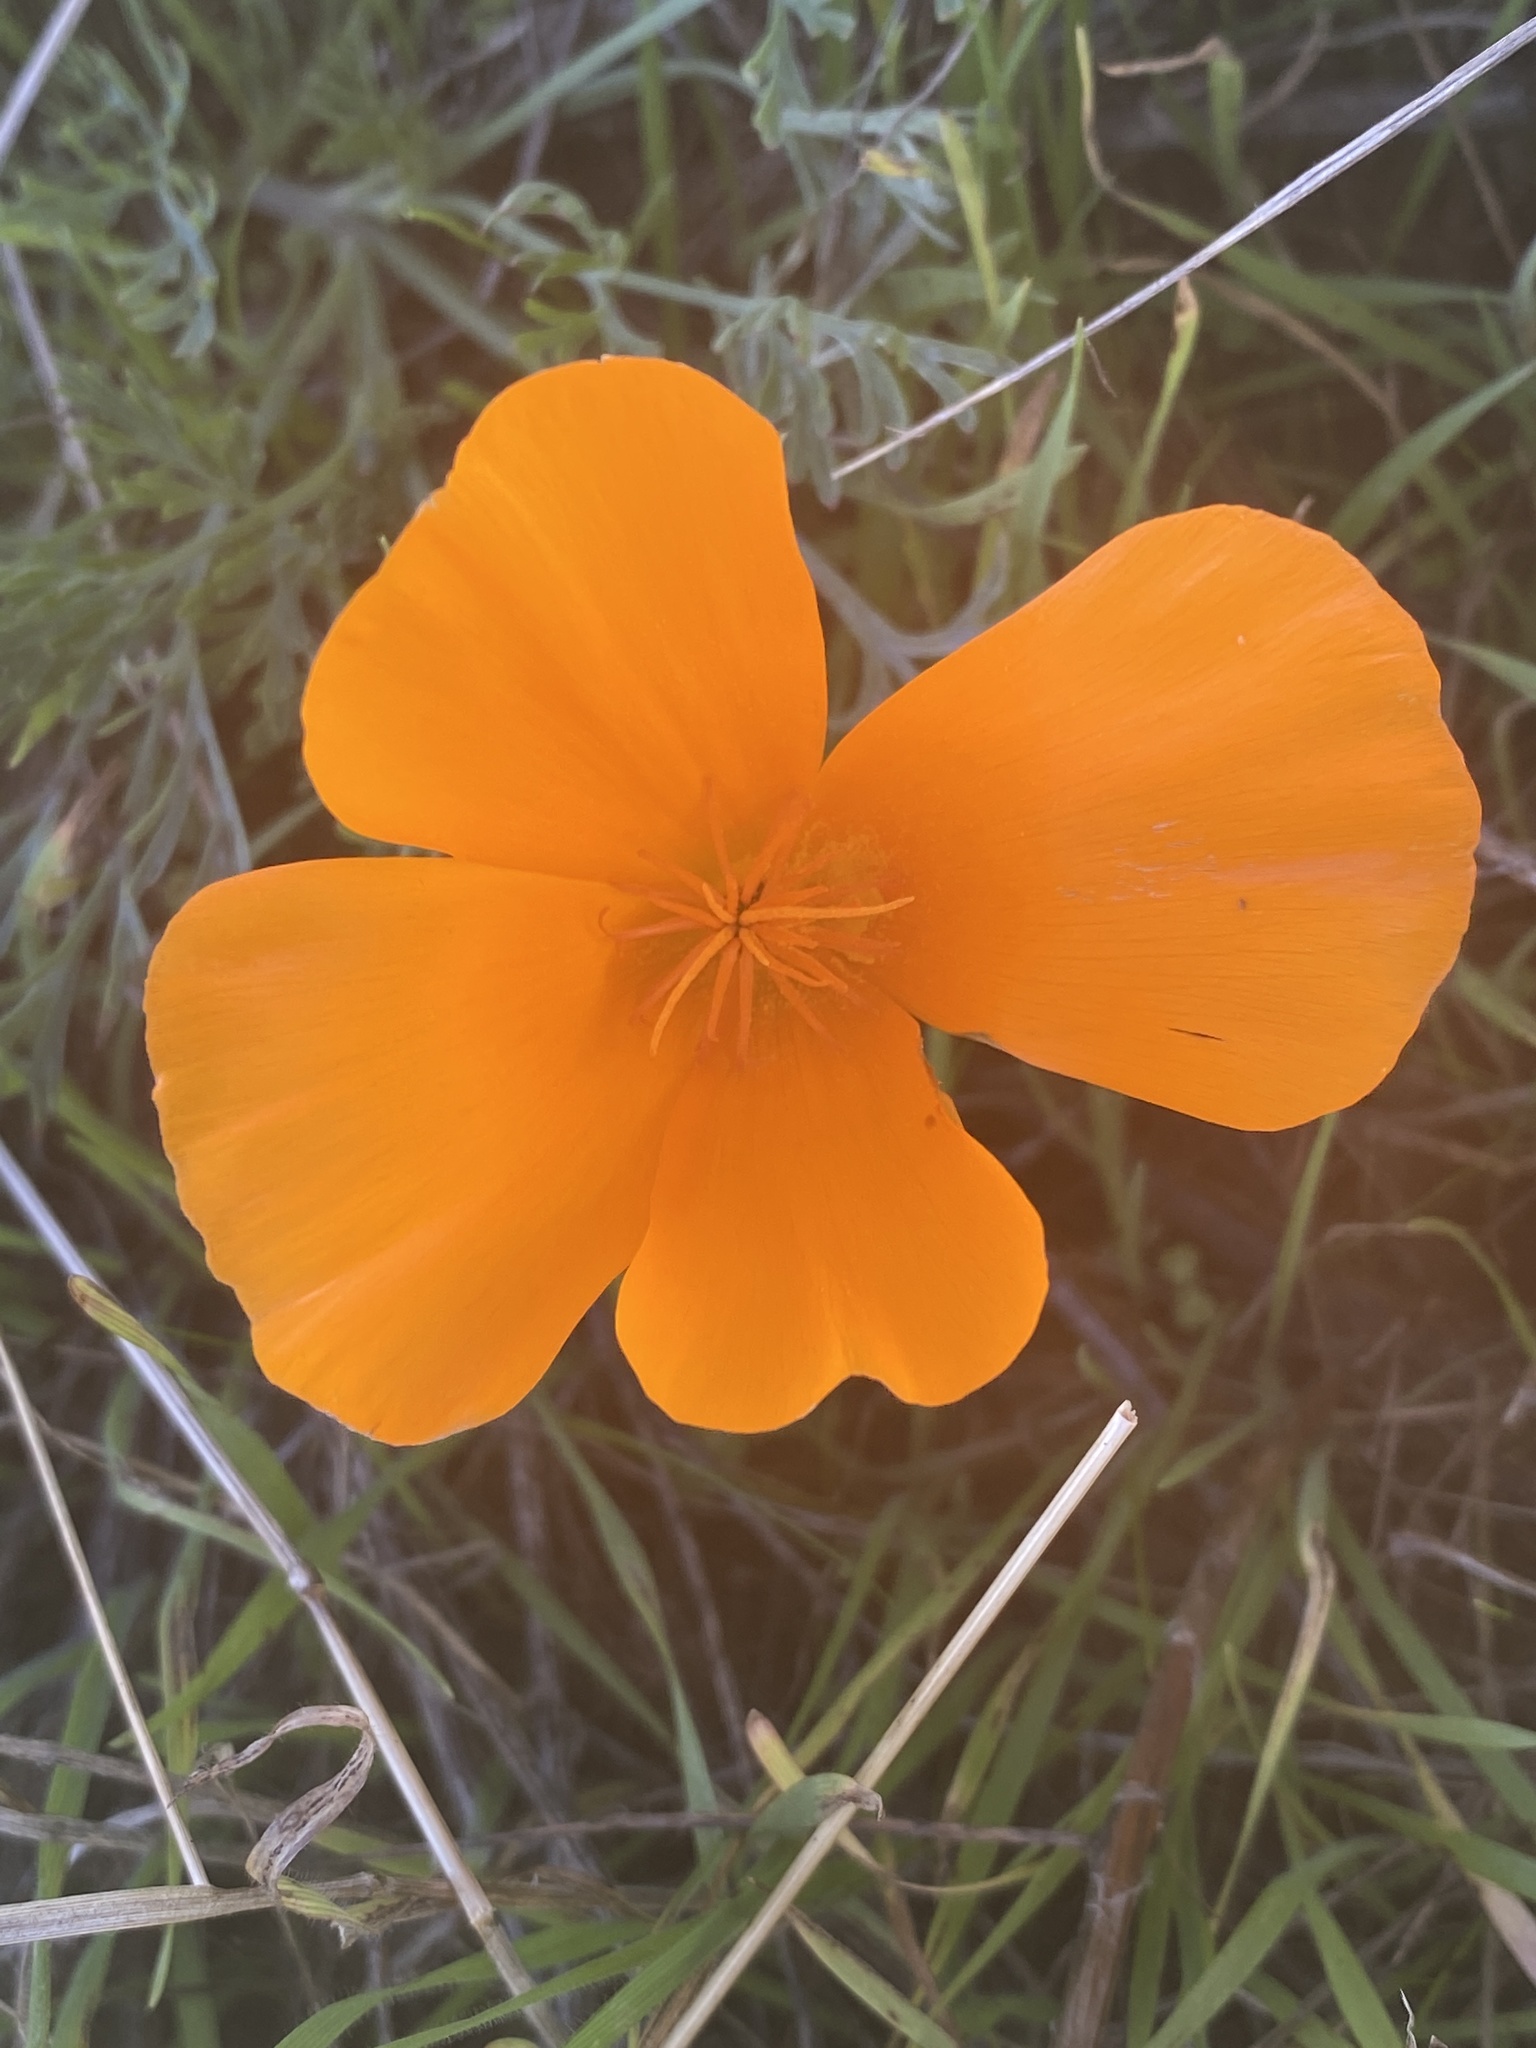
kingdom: Plantae
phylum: Tracheophyta
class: Magnoliopsida
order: Ranunculales
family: Papaveraceae
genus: Eschscholzia
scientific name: Eschscholzia californica
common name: California poppy
